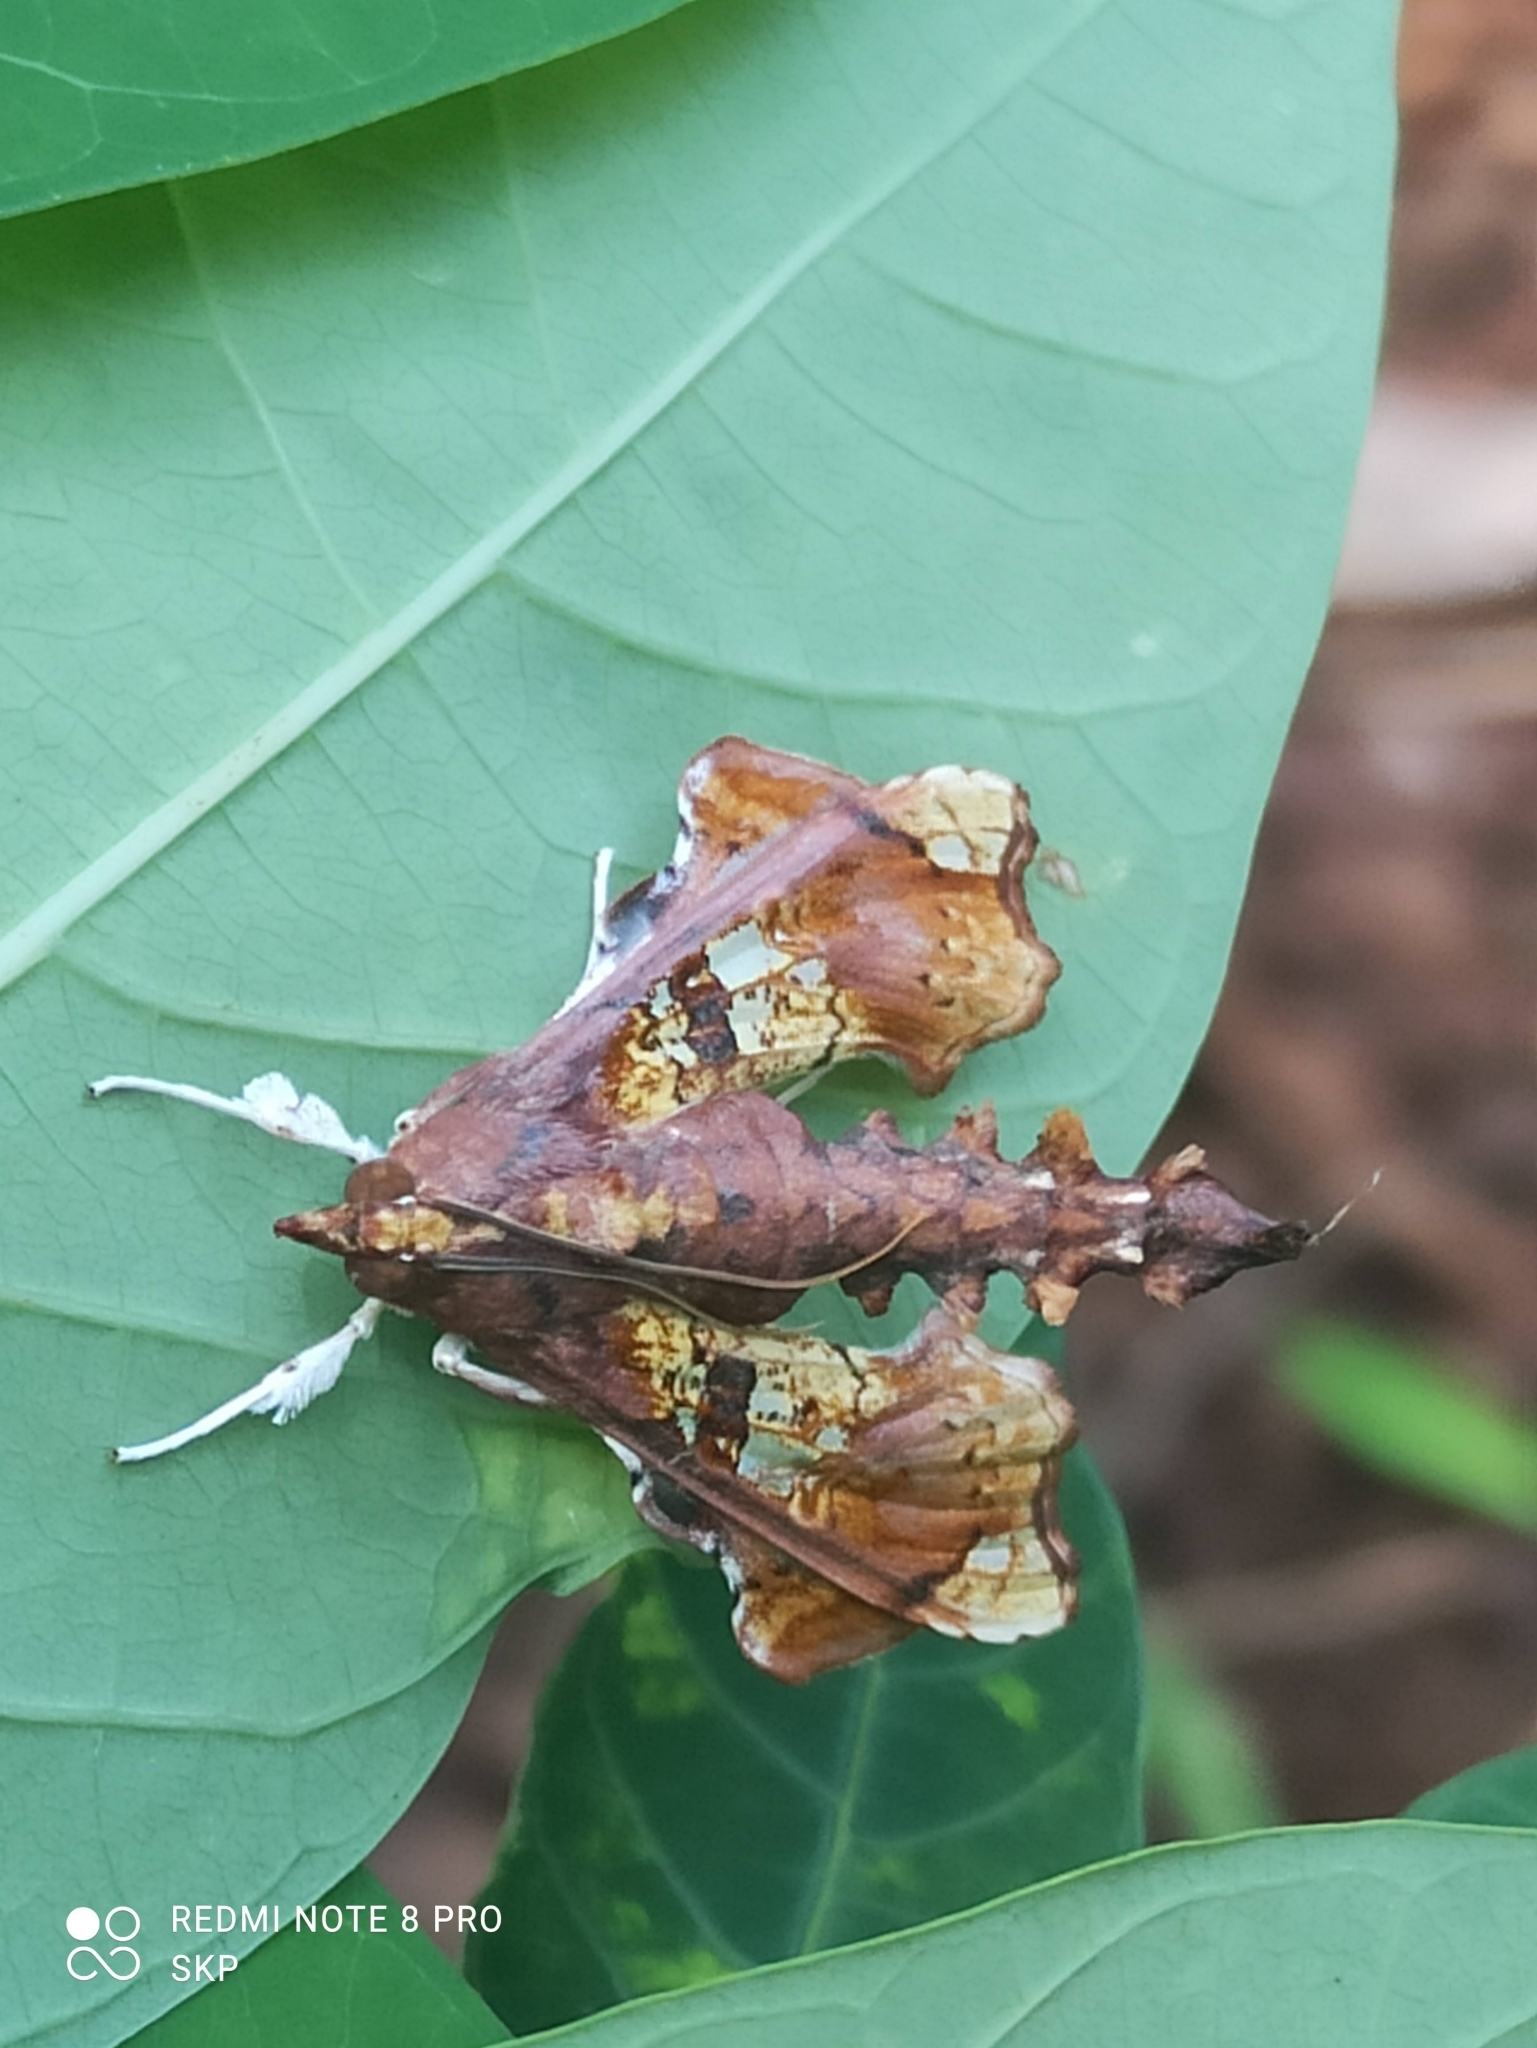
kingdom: Animalia
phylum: Arthropoda
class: Insecta
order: Lepidoptera
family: Crambidae
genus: Terastia
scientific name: Terastia egialealis
